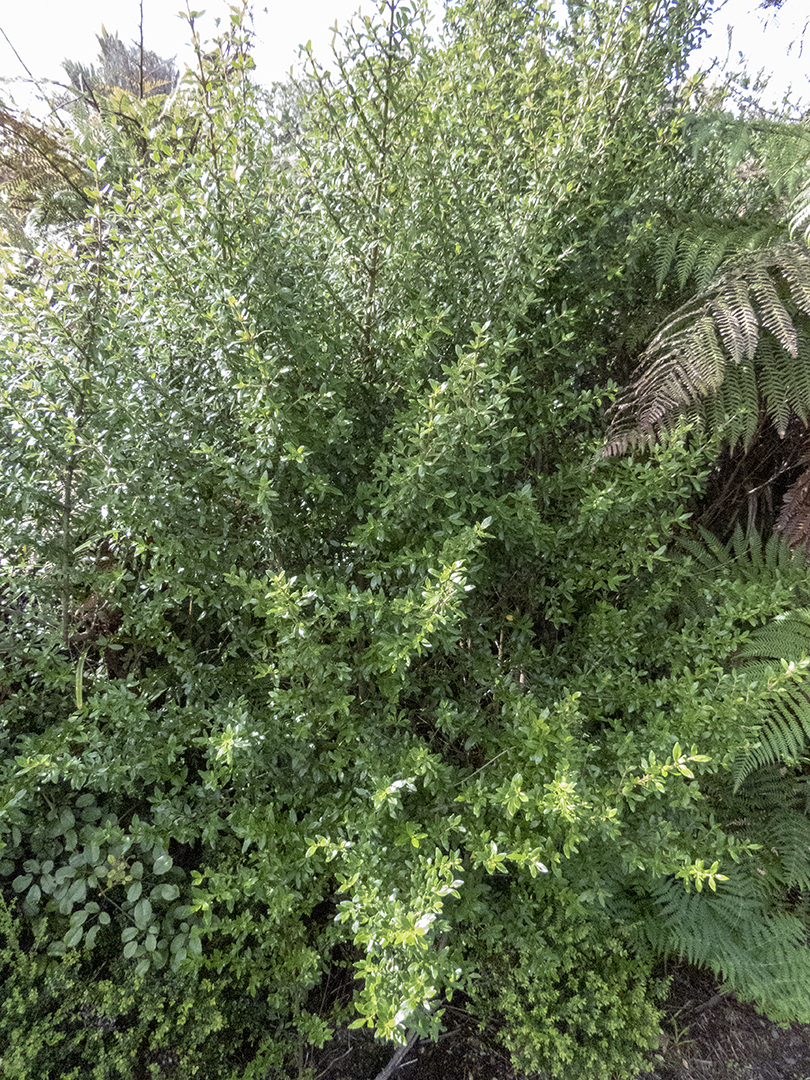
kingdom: Plantae
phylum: Tracheophyta
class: Magnoliopsida
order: Gentianales
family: Rubiaceae
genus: Coprosma
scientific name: Coprosma cunninghamii
